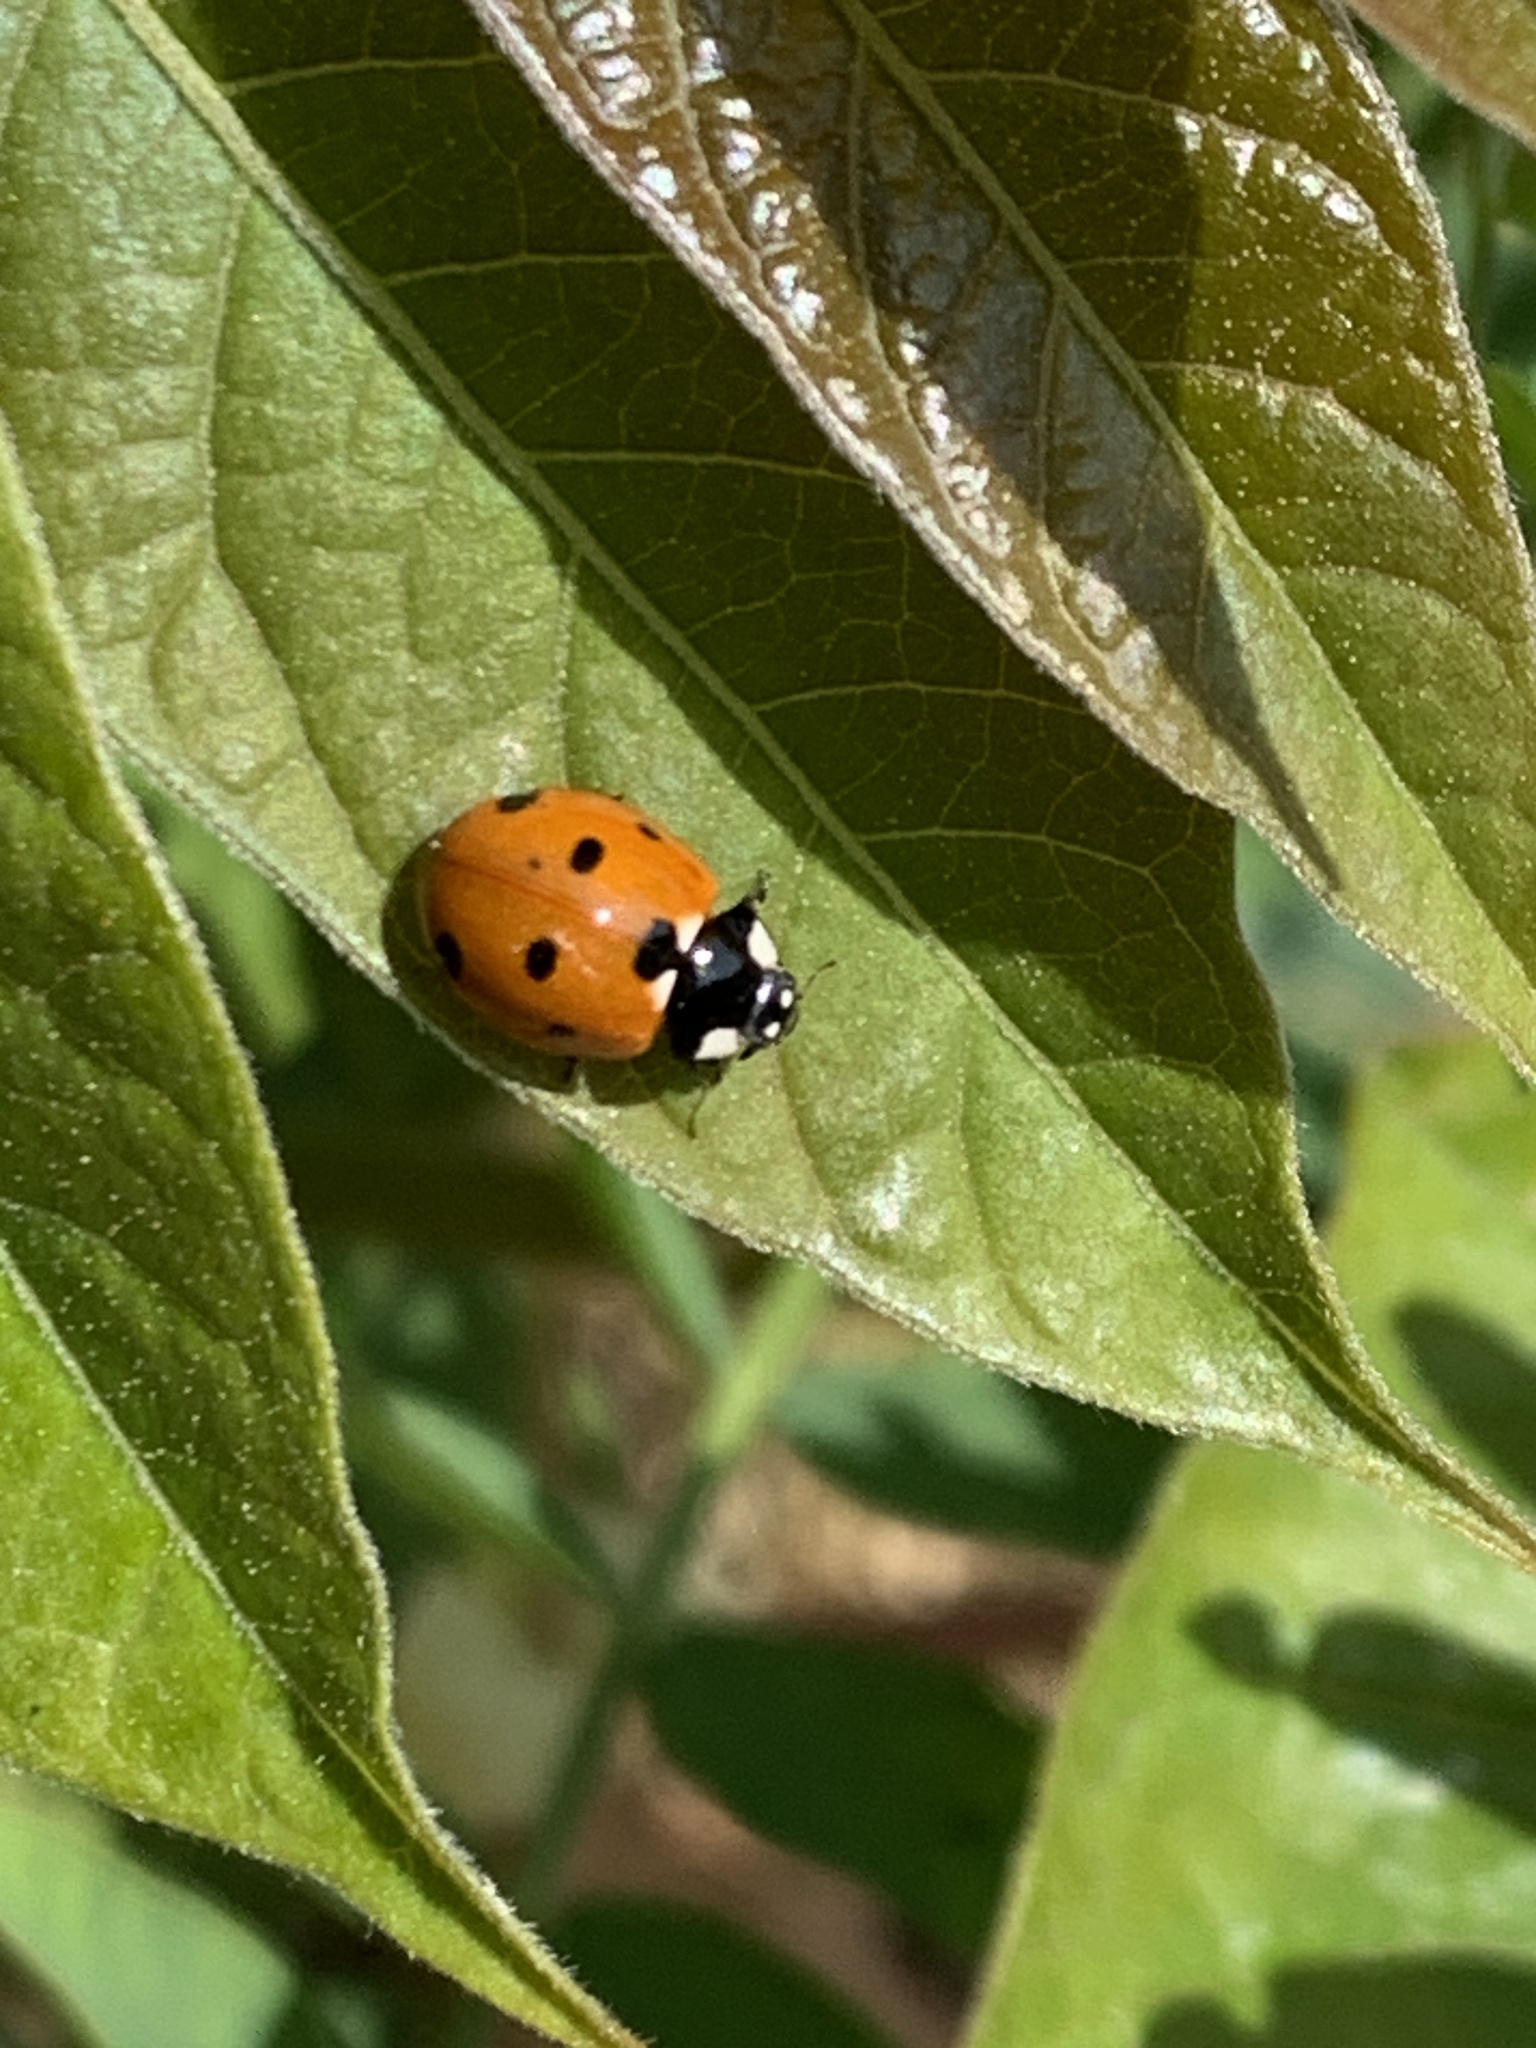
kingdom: Animalia
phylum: Arthropoda
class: Insecta
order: Coleoptera
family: Coccinellidae
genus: Coccinella
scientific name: Coccinella septempunctata
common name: Sevenspotted lady beetle
